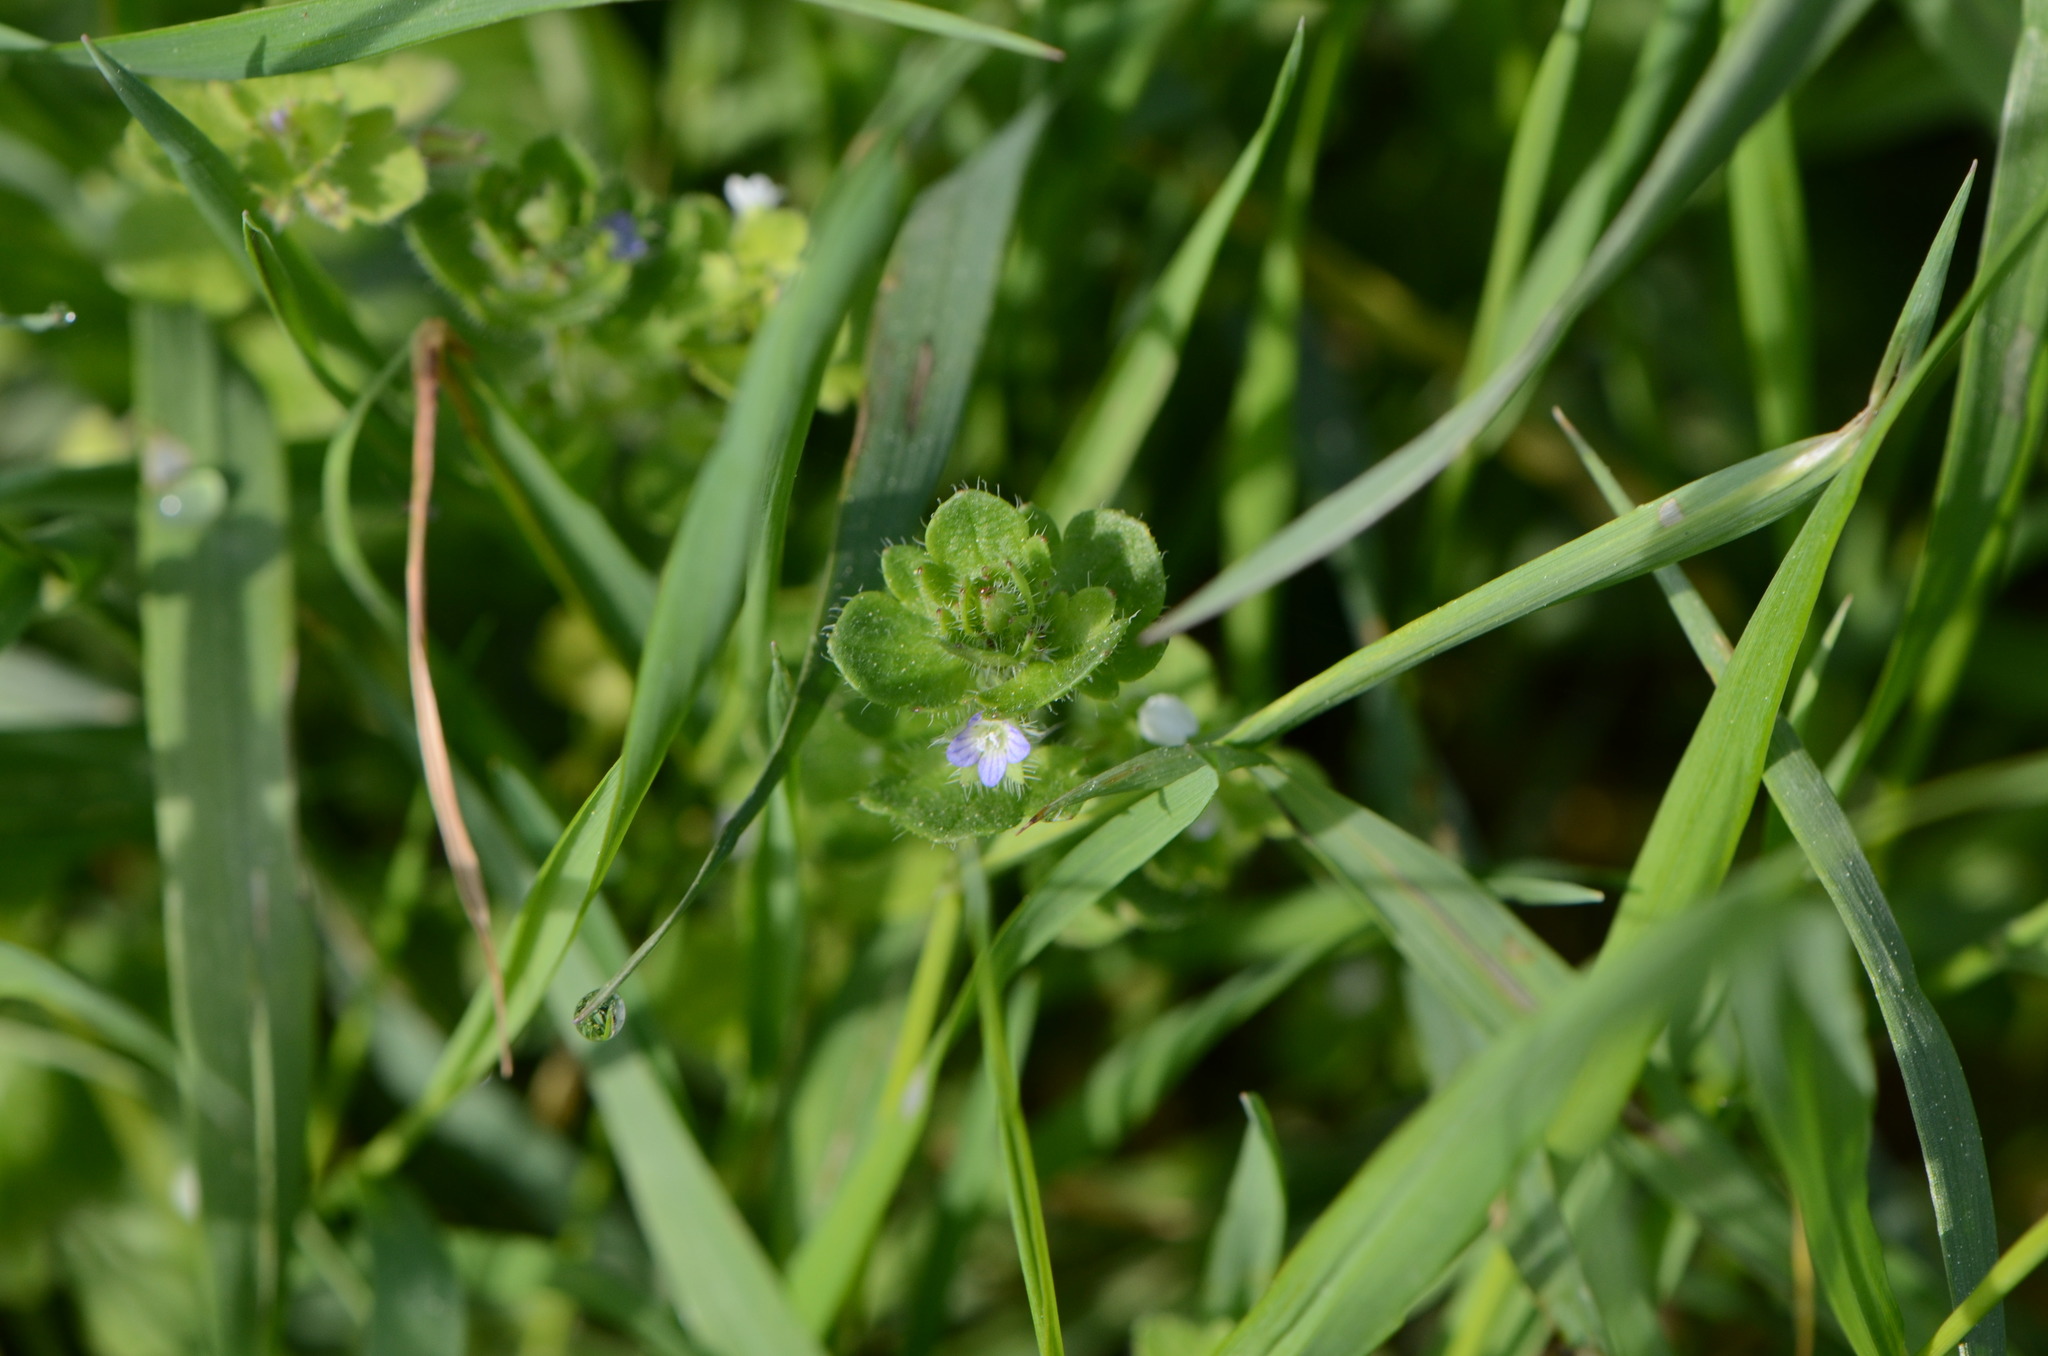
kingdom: Plantae
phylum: Tracheophyta
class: Magnoliopsida
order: Lamiales
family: Plantaginaceae
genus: Veronica
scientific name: Veronica hederifolia
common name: Ivy-leaved speedwell
